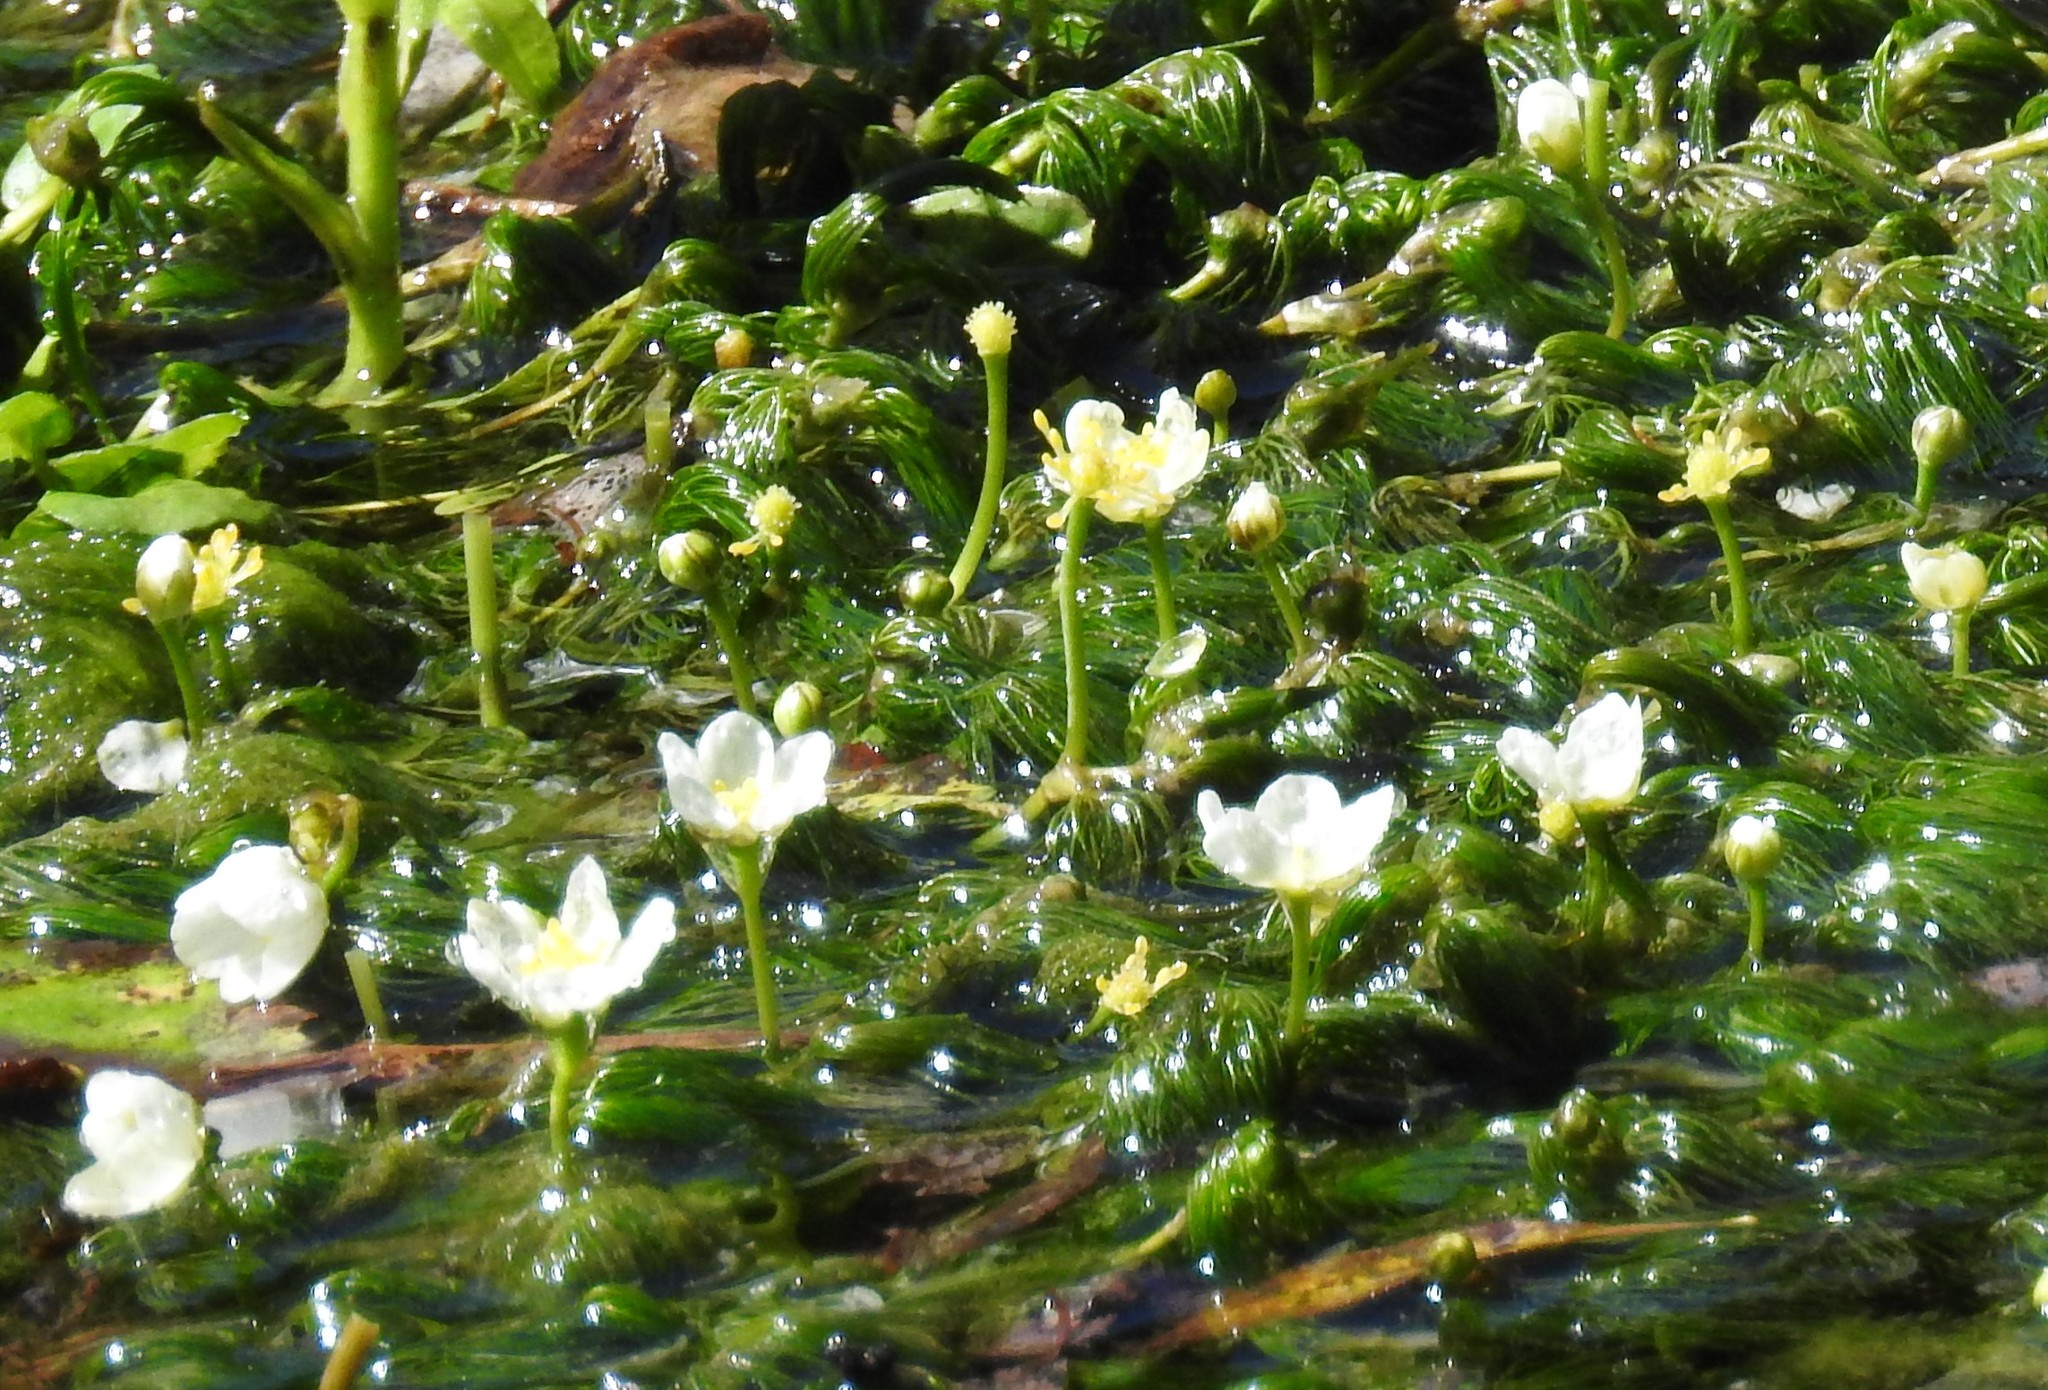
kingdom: Plantae
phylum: Tracheophyta
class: Magnoliopsida
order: Ranunculales
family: Ranunculaceae
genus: Ranunculus
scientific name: Ranunculus aquatilis
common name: Common water-crowfoot
